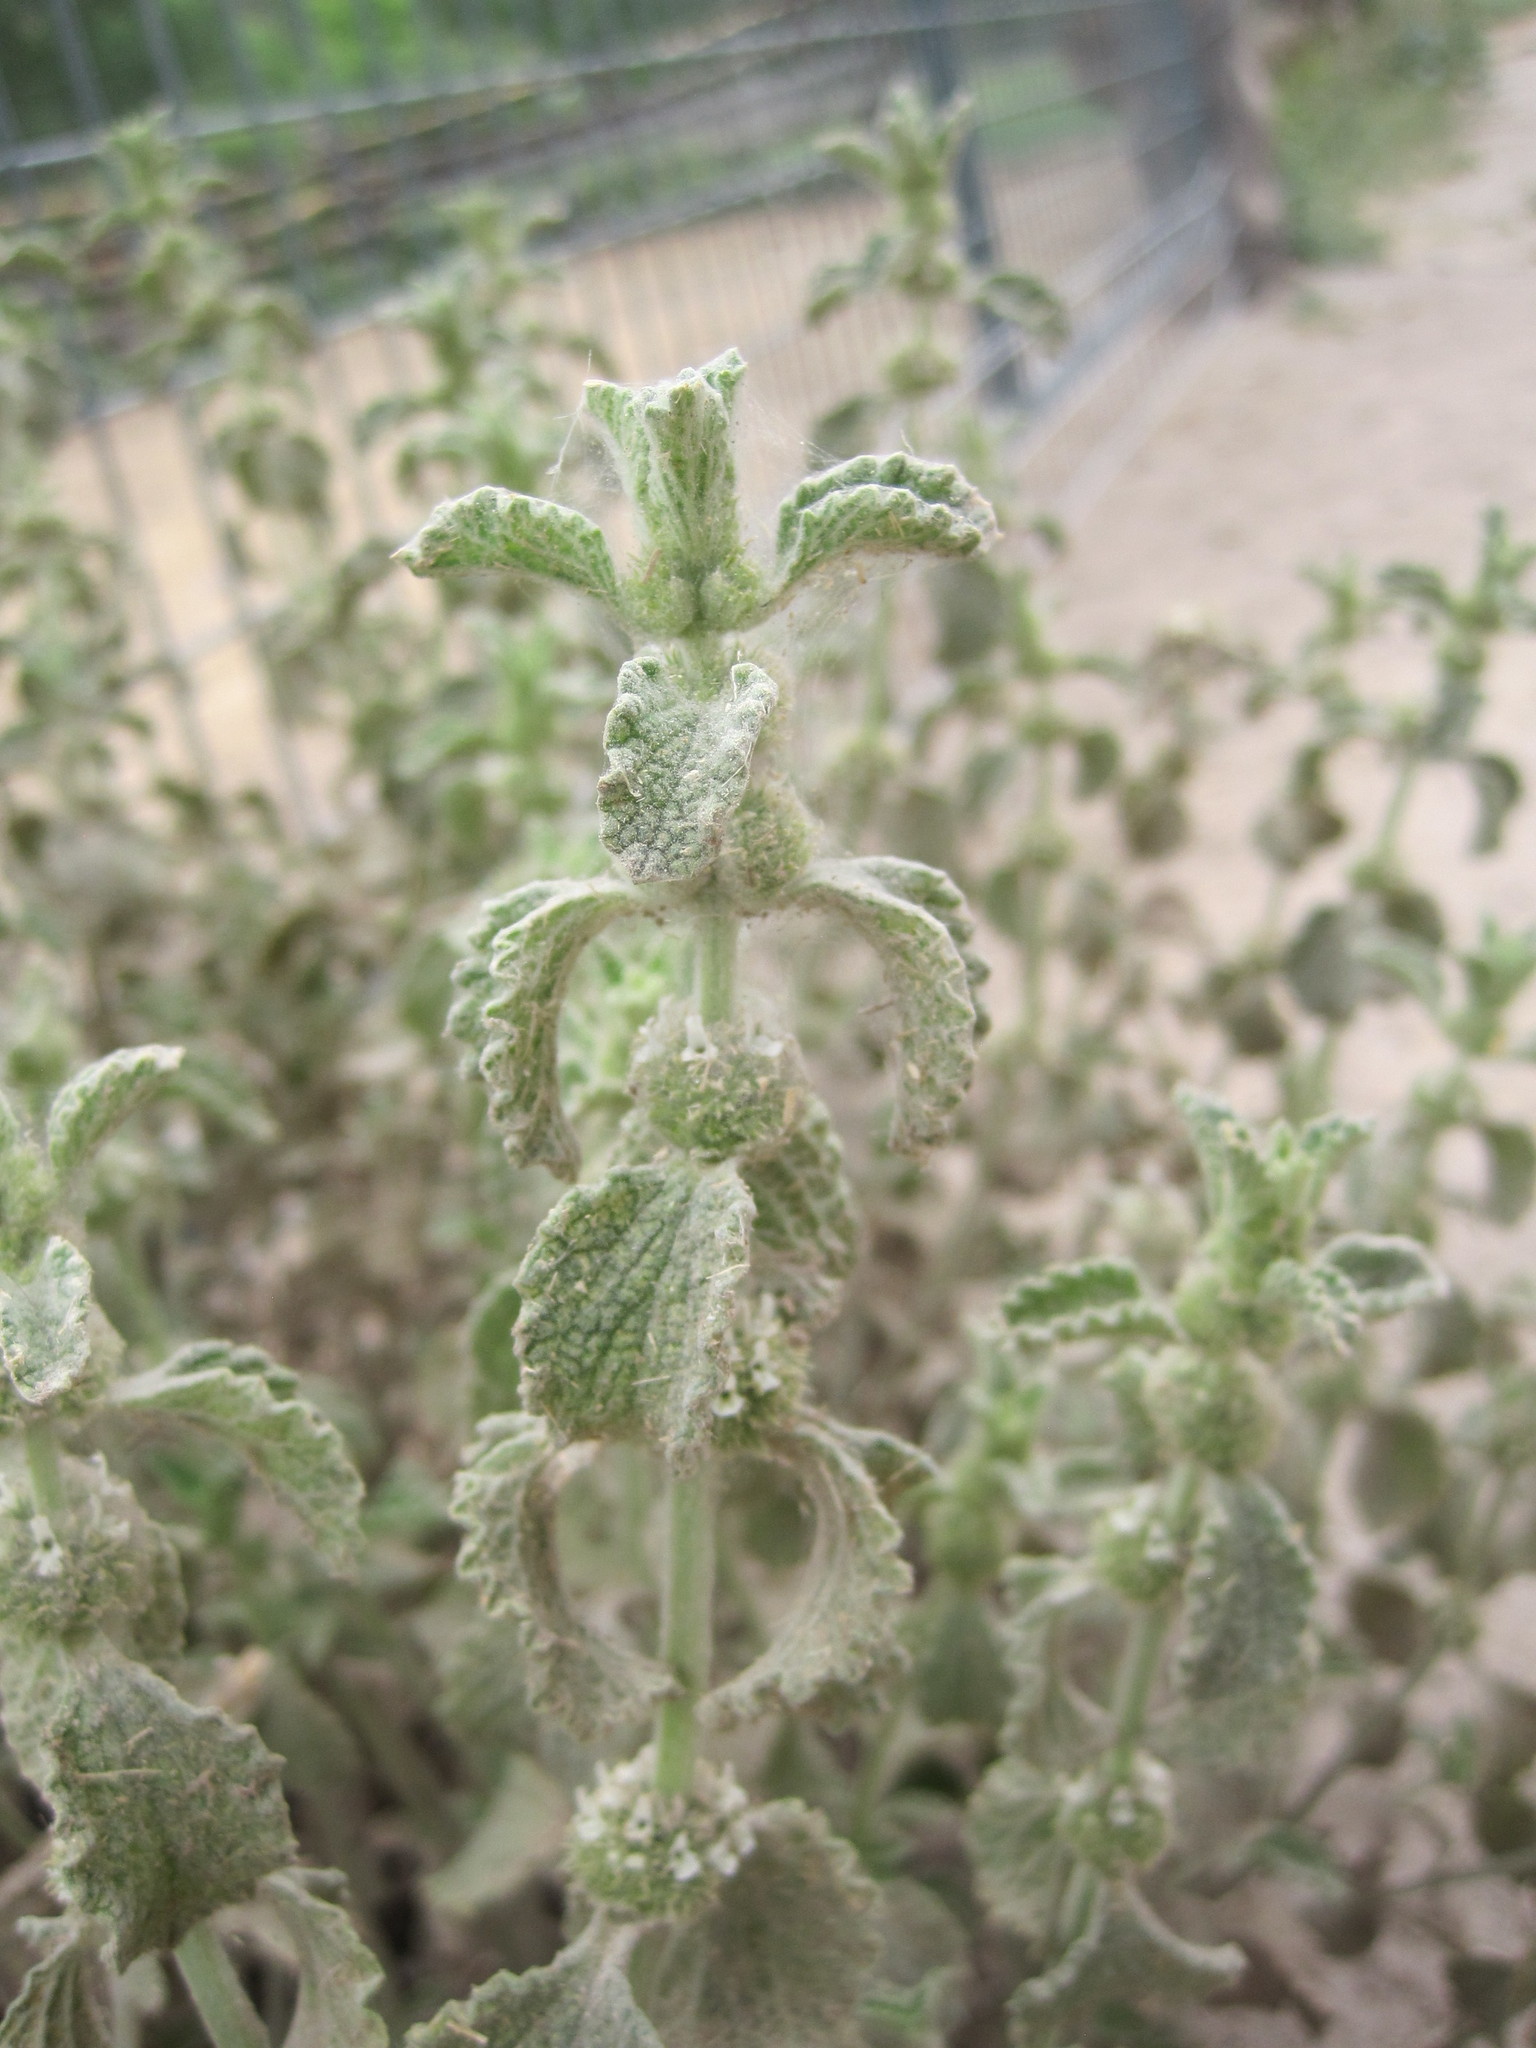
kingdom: Plantae
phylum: Tracheophyta
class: Magnoliopsida
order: Lamiales
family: Lamiaceae
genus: Marrubium
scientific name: Marrubium vulgare
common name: Horehound
